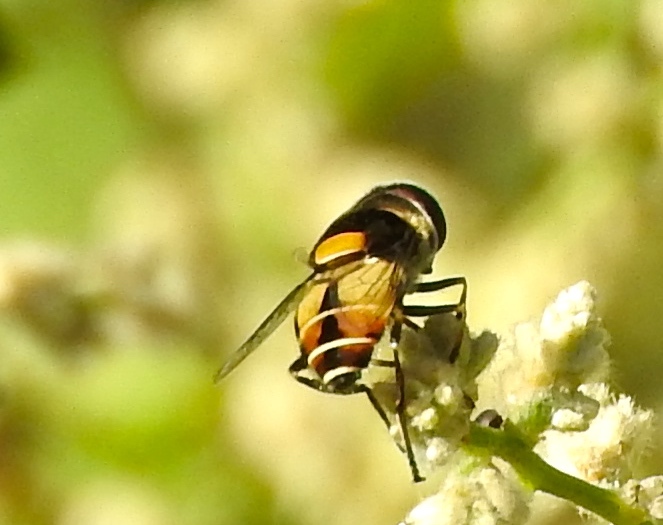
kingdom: Animalia
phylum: Arthropoda
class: Insecta
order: Diptera
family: Syrphidae
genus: Palpada
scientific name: Palpada pusilla
